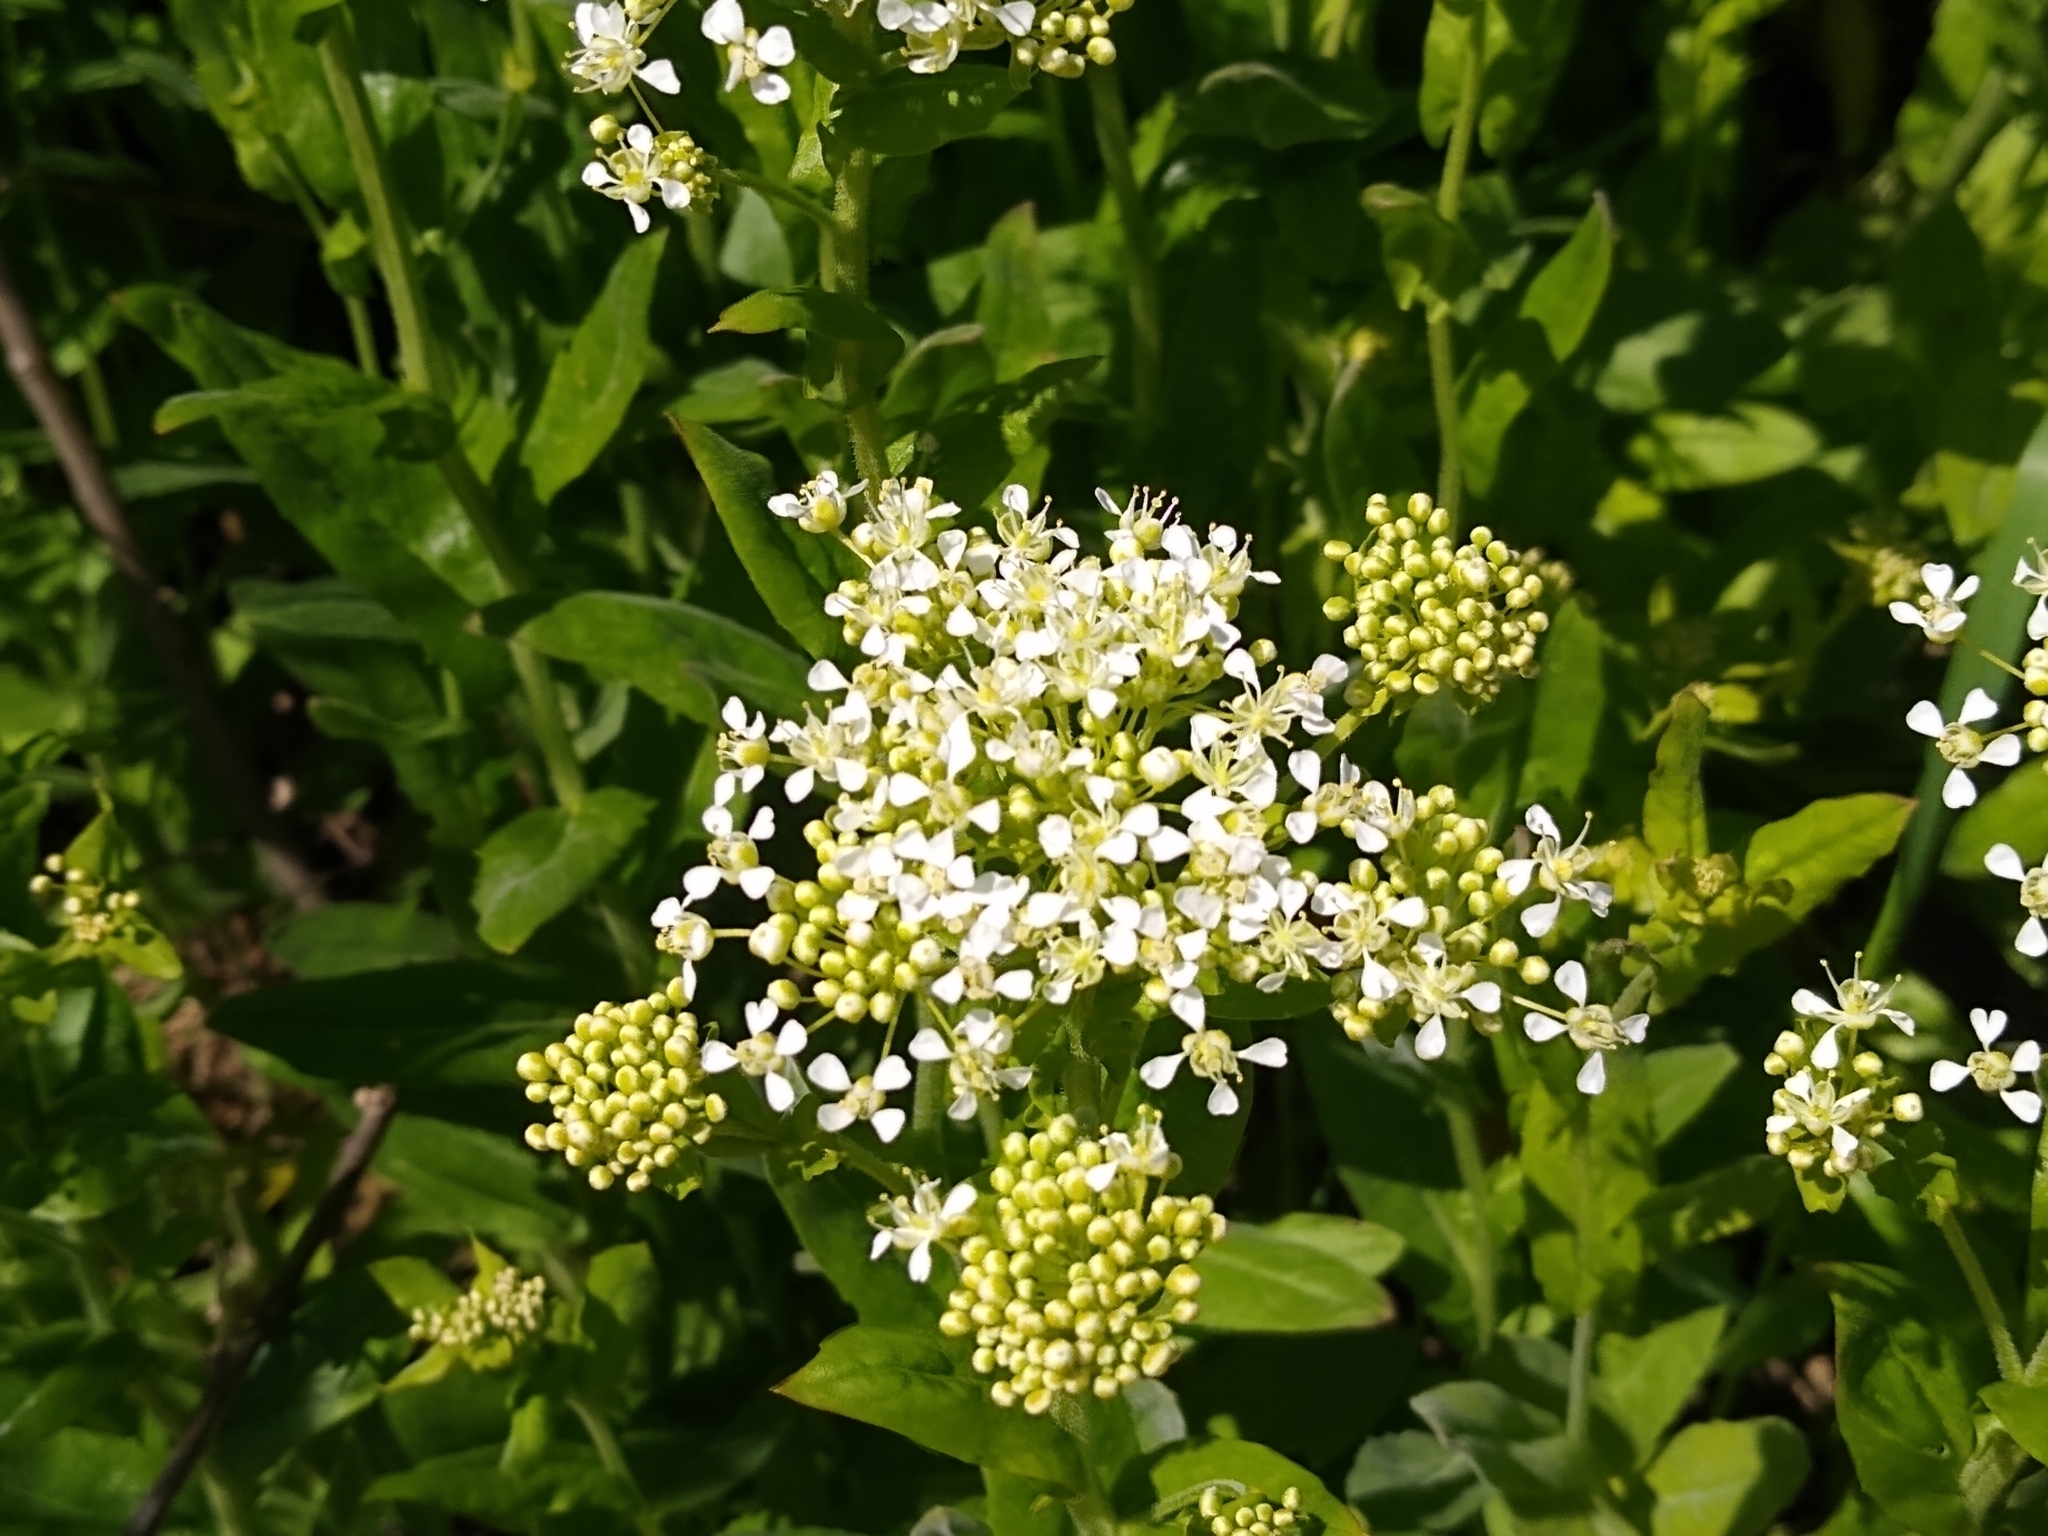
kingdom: Plantae
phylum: Tracheophyta
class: Magnoliopsida
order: Brassicales
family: Brassicaceae
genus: Lepidium
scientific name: Lepidium draba
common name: Hoary cress
